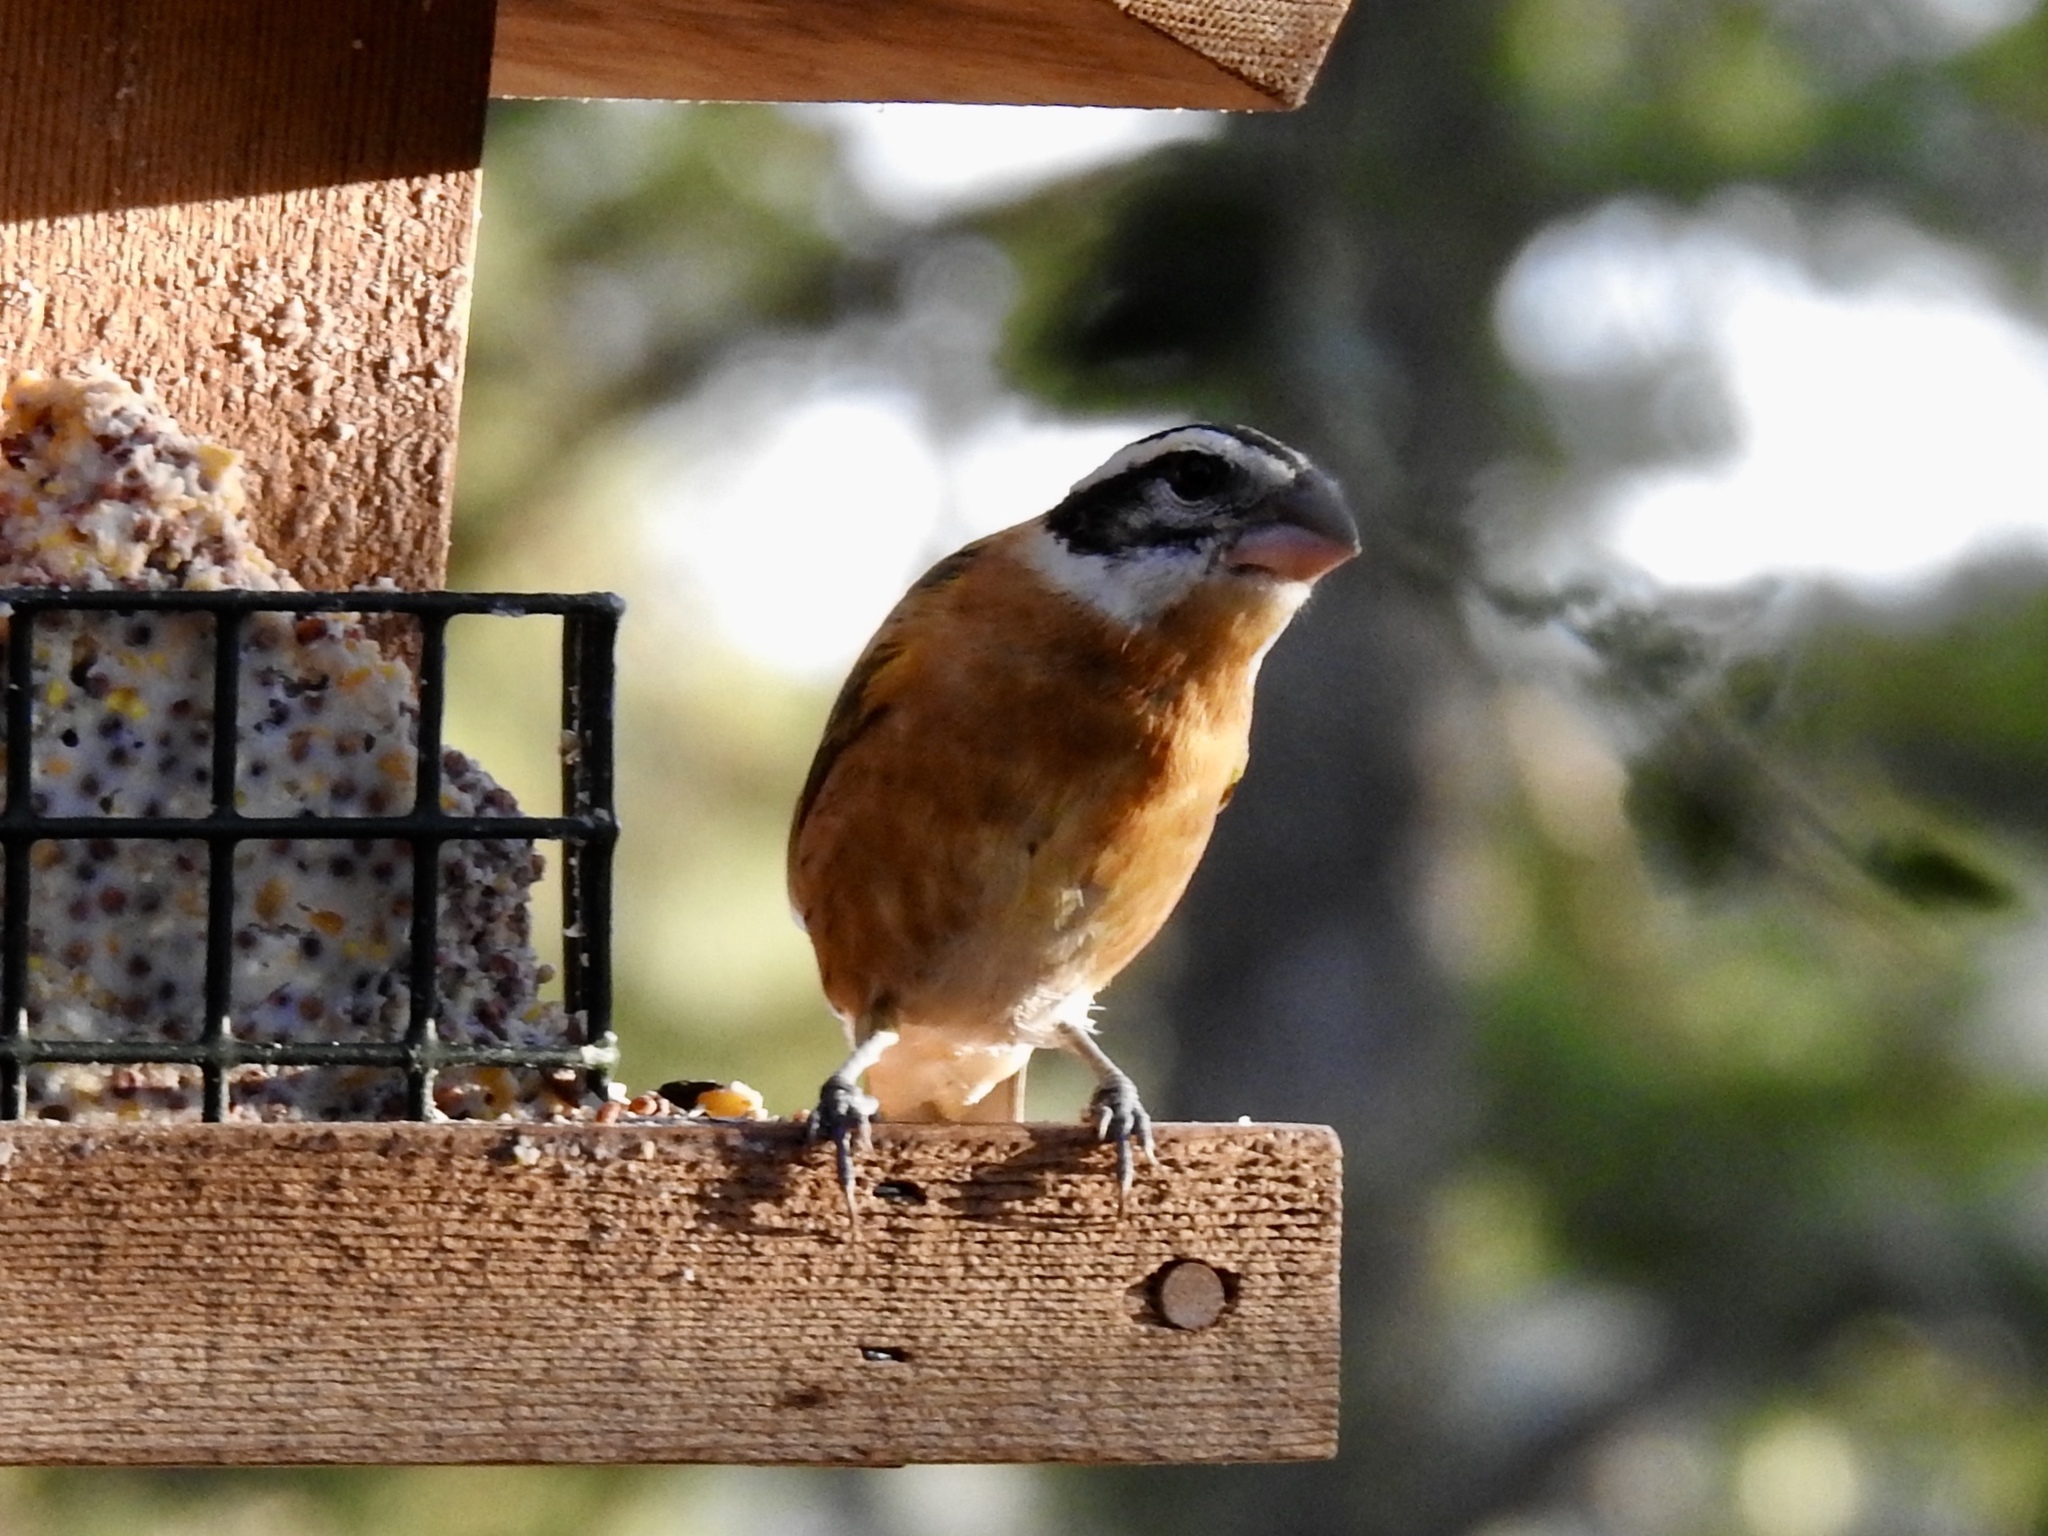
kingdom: Animalia
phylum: Chordata
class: Aves
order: Passeriformes
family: Cardinalidae
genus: Pheucticus
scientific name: Pheucticus melanocephalus
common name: Black-headed grosbeak
